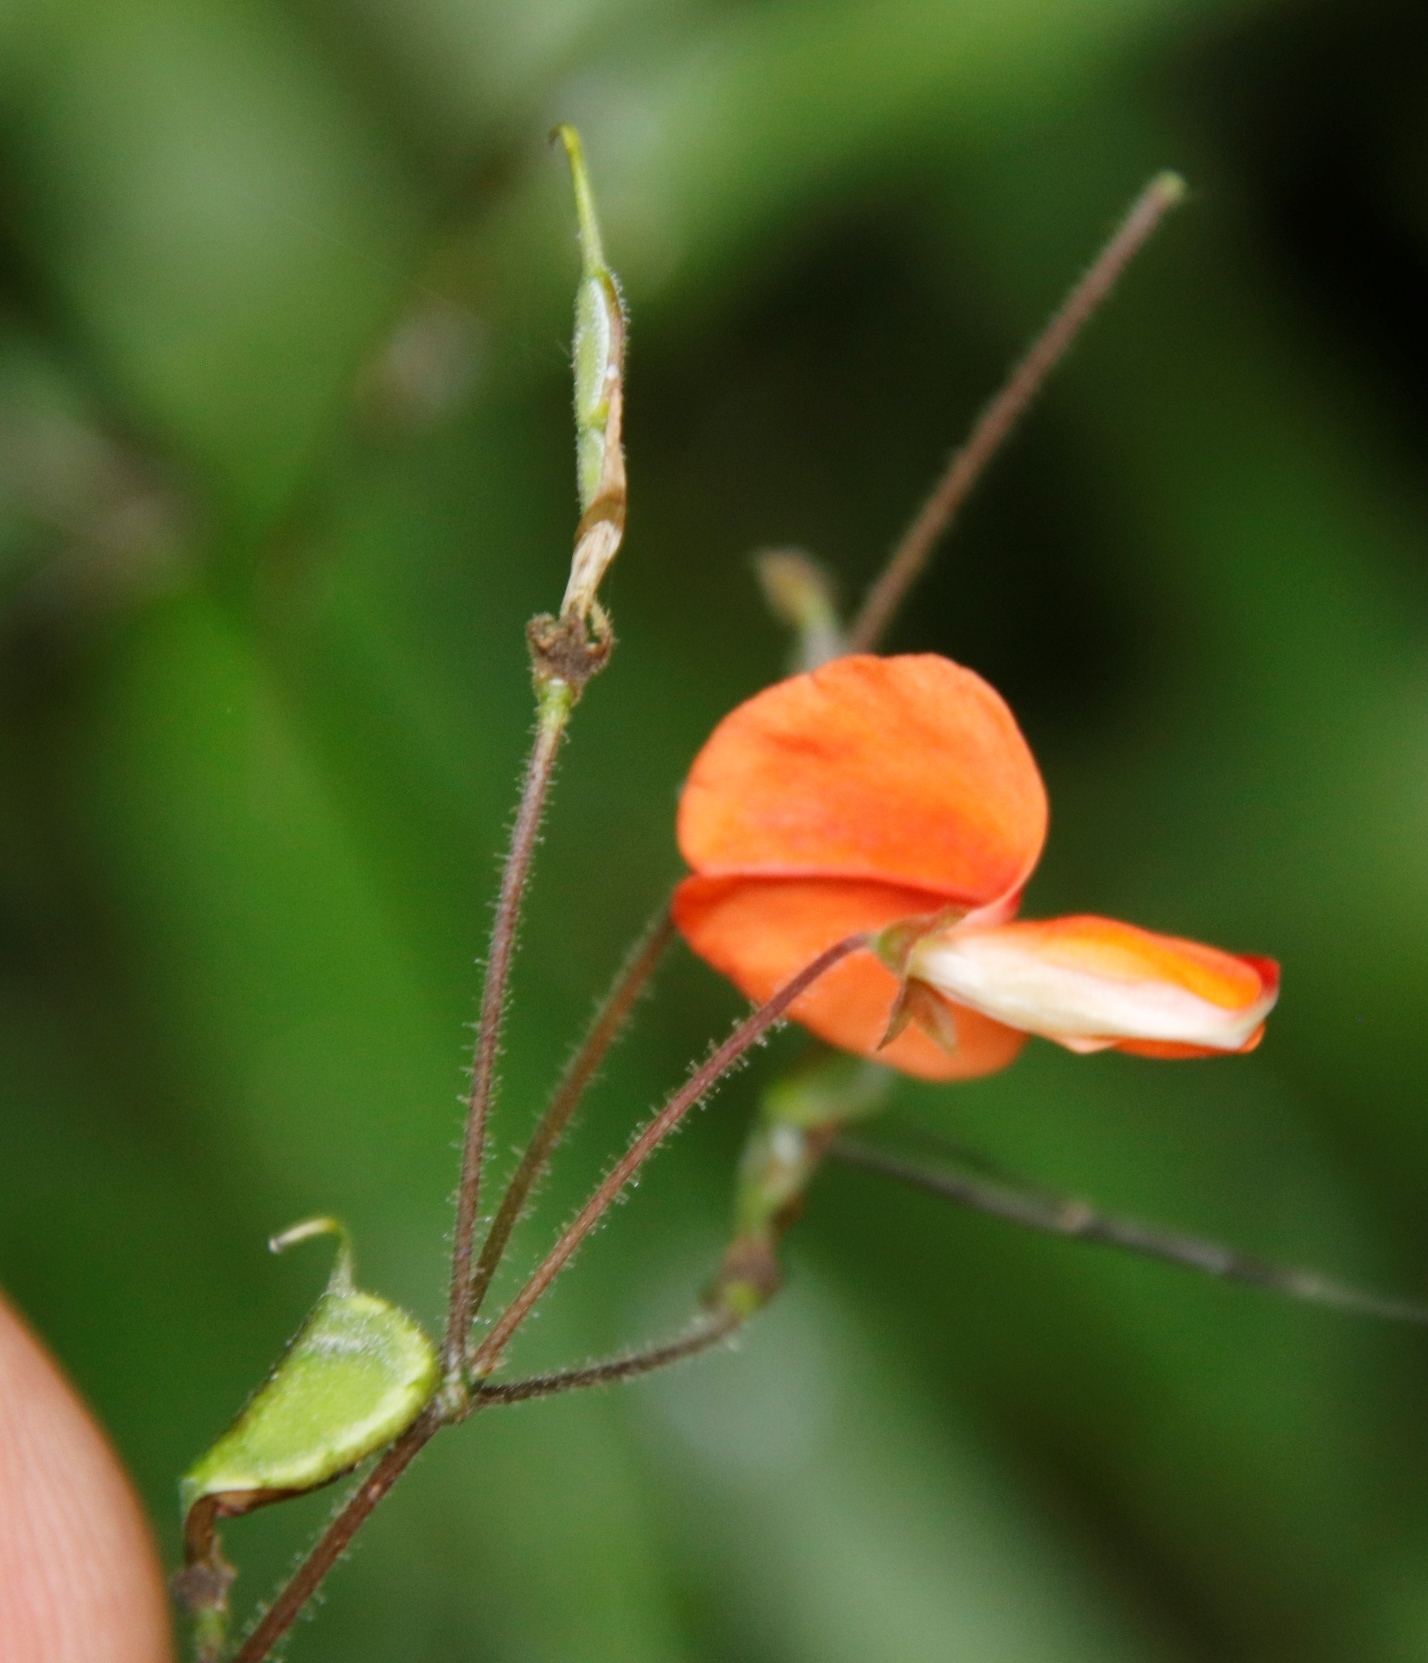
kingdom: Plantae
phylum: Tracheophyta
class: Magnoliopsida
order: Fabales
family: Fabaceae
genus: Hylodesmum
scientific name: Hylodesmum repandum
